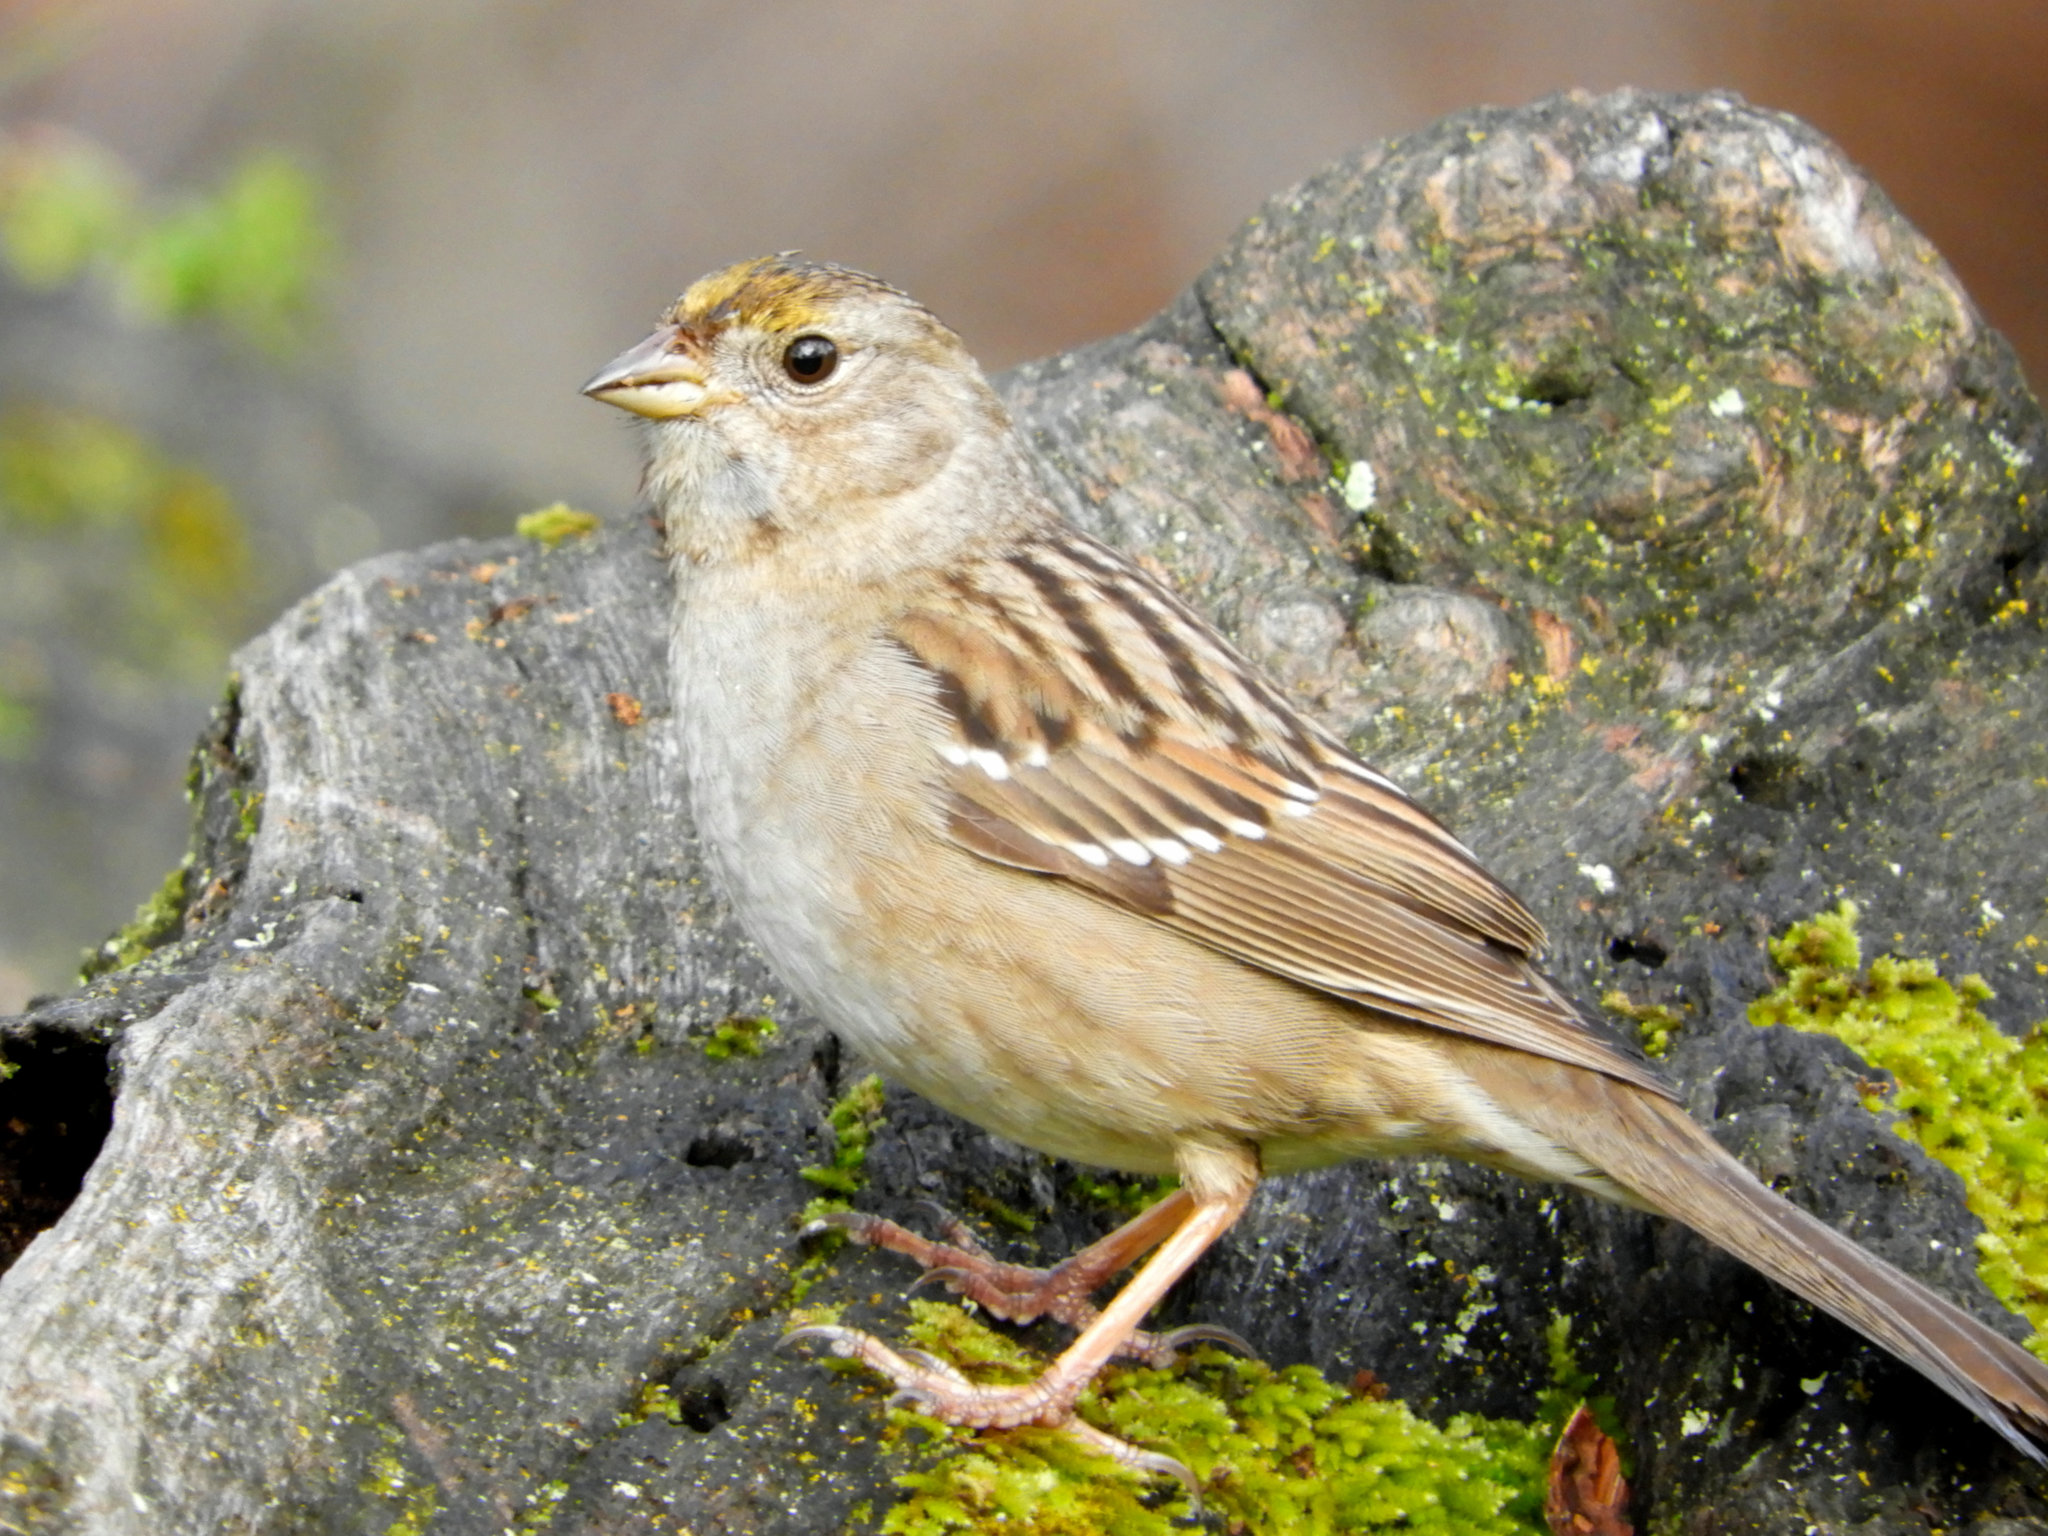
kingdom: Animalia
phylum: Chordata
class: Aves
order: Passeriformes
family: Passerellidae
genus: Zonotrichia
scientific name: Zonotrichia atricapilla
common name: Golden-crowned sparrow
